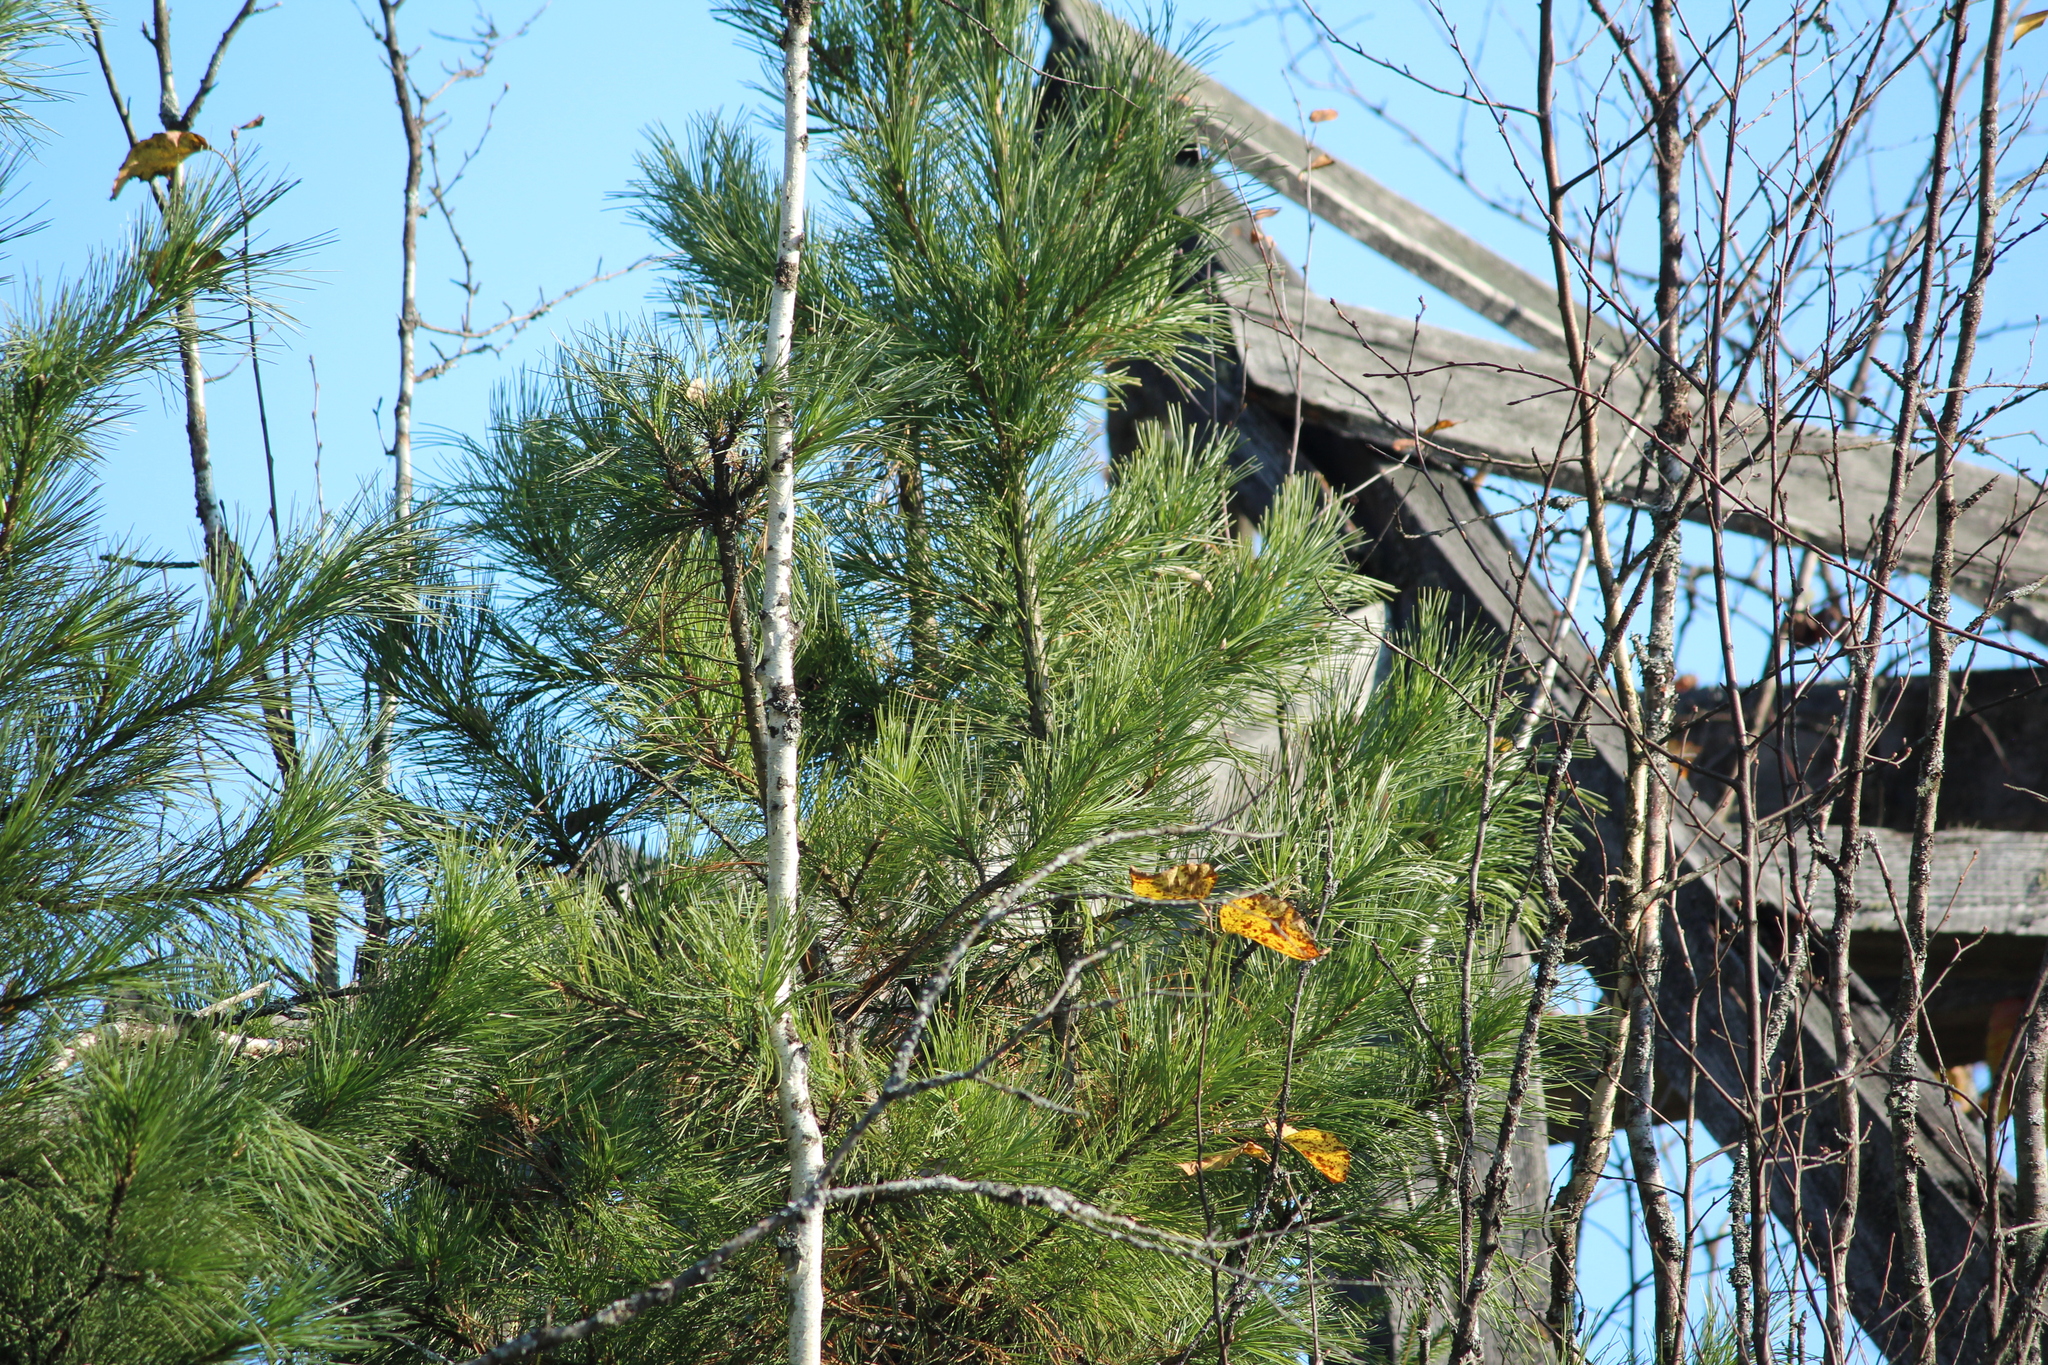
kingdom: Plantae
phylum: Tracheophyta
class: Pinopsida
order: Pinales
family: Pinaceae
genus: Pinus
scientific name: Pinus sibirica
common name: Siberian pine
